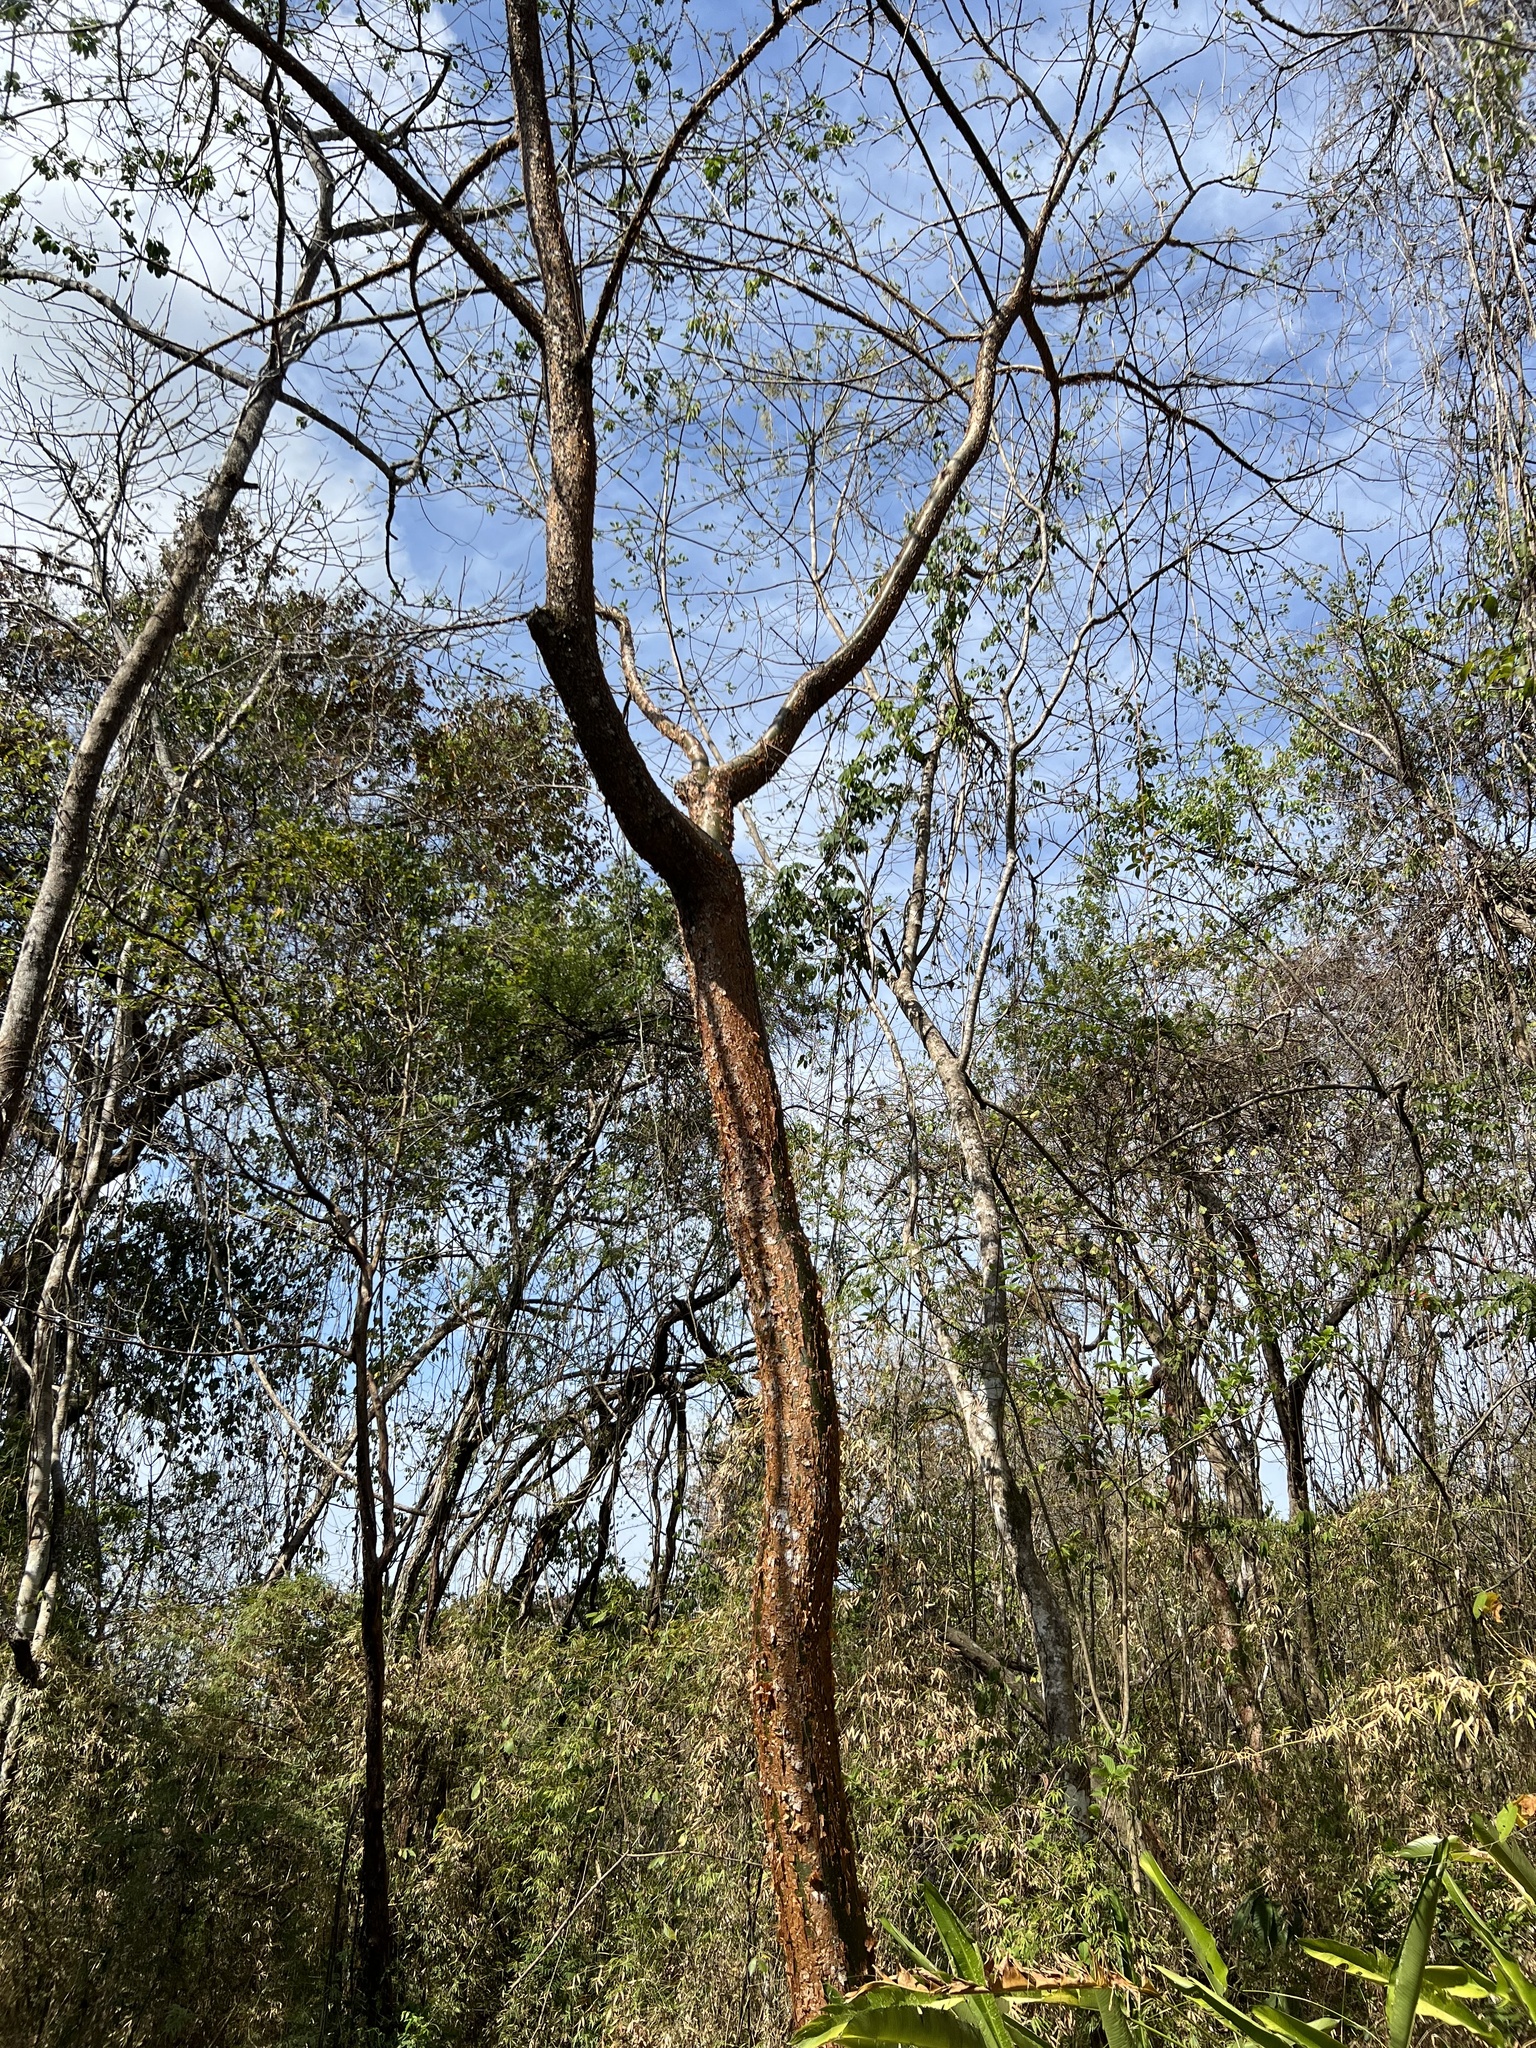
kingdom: Plantae
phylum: Tracheophyta
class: Magnoliopsida
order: Sapindales
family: Burseraceae
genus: Bursera
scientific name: Bursera simaruba
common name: Turpentine tree
